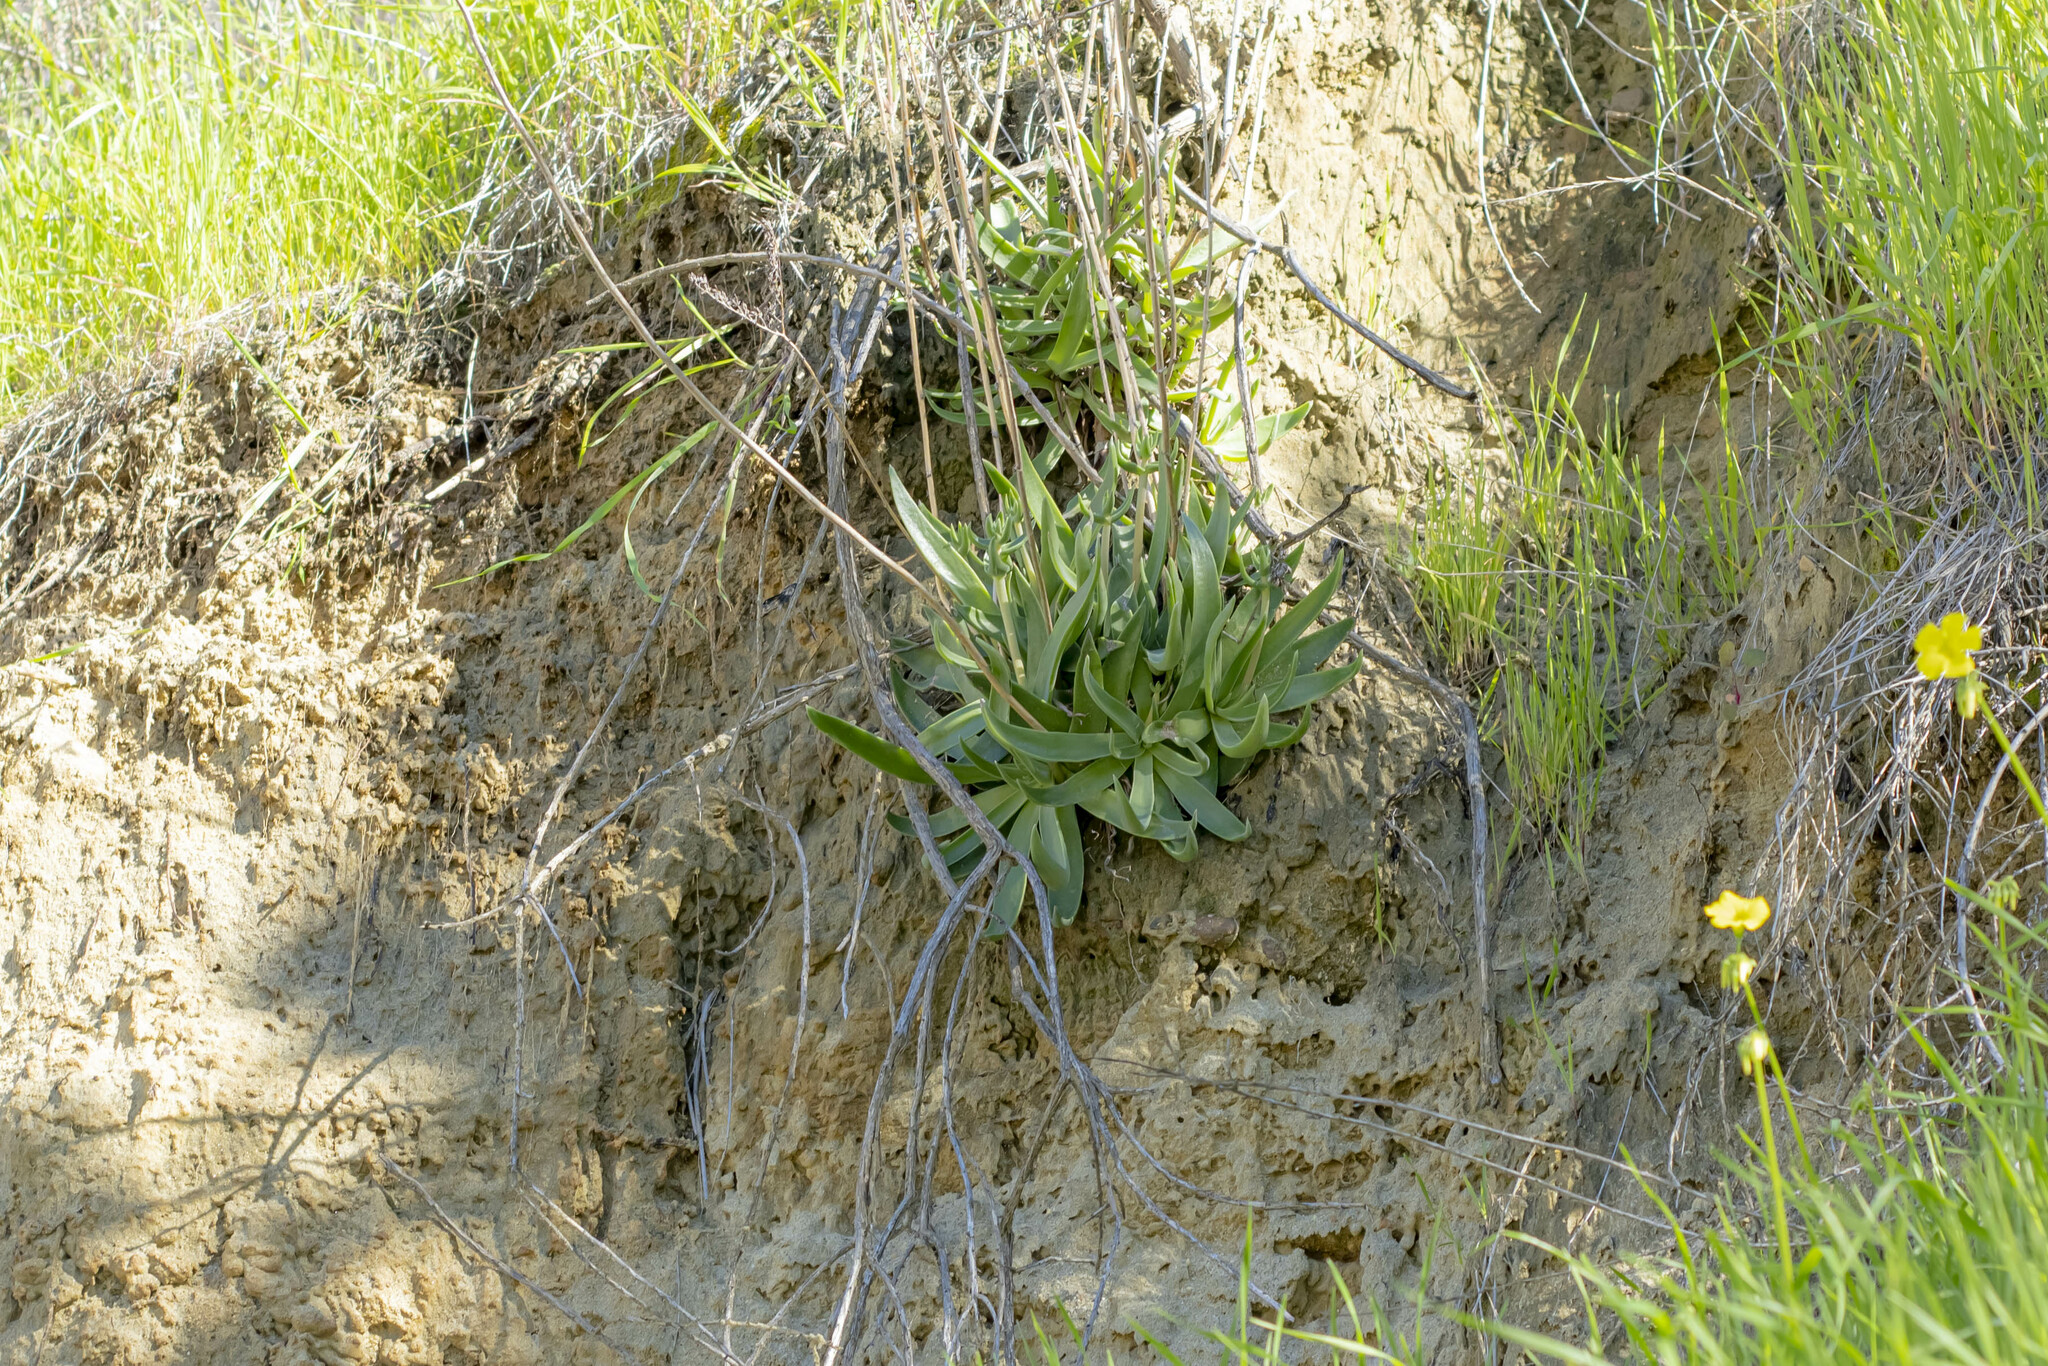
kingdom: Plantae
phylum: Tracheophyta
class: Magnoliopsida
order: Saxifragales
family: Crassulaceae
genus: Dudleya
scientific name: Dudleya lanceolata
